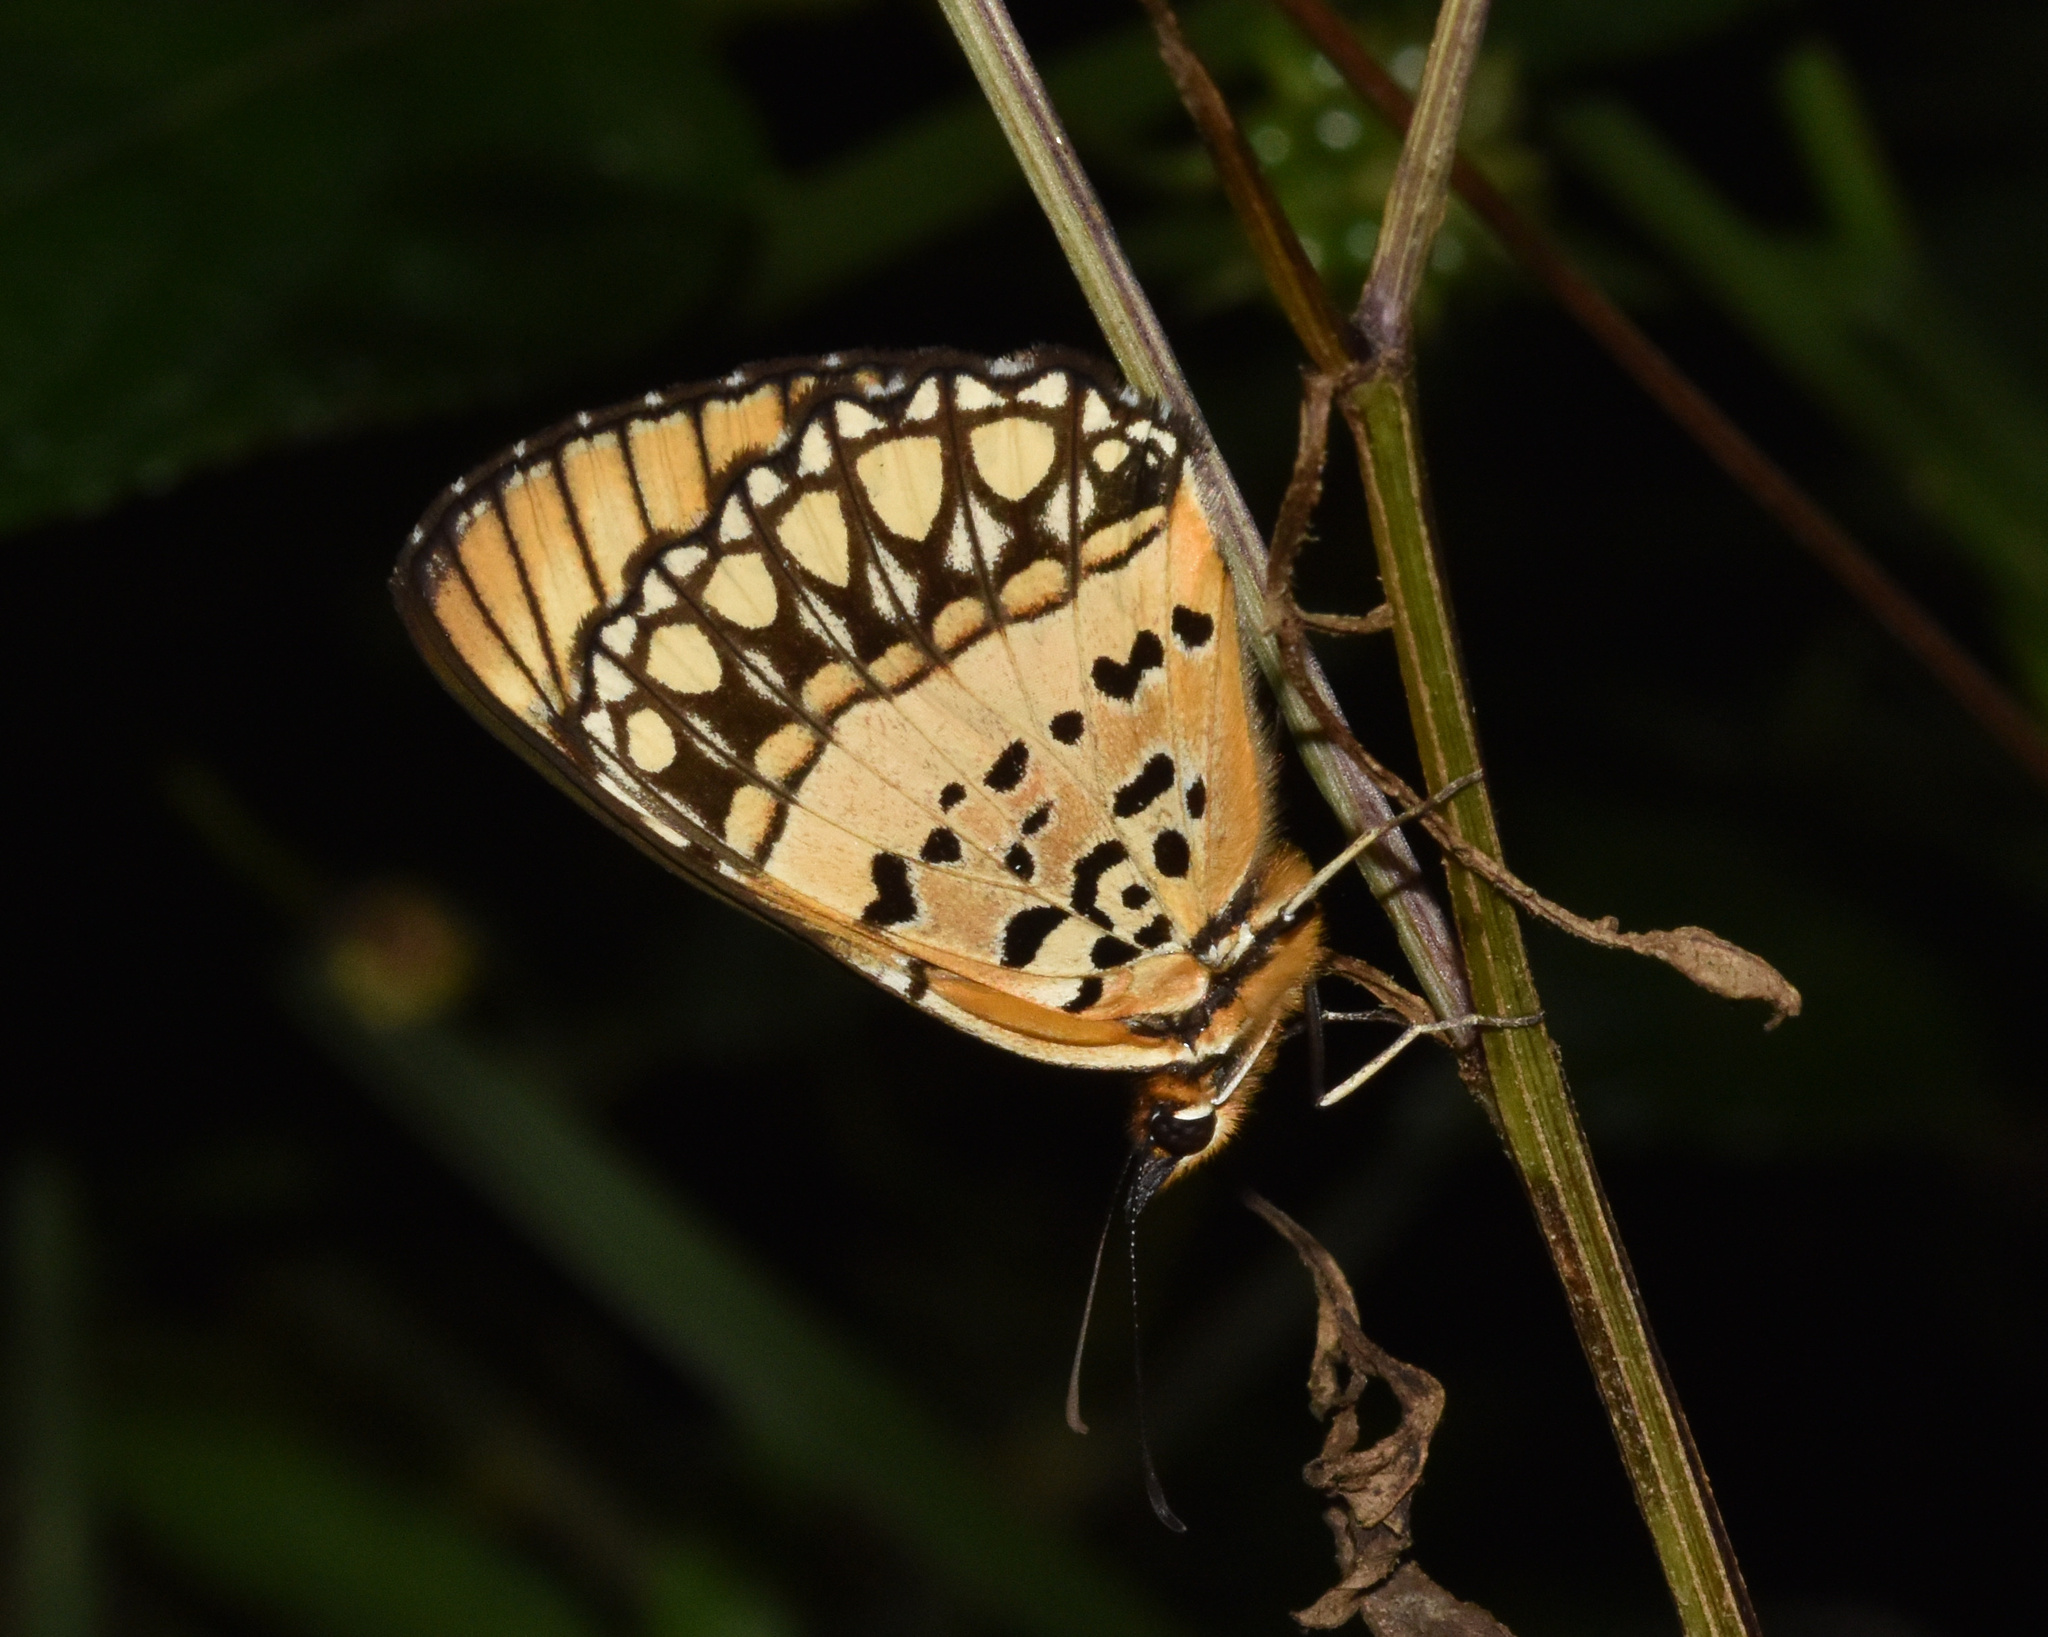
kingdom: Animalia
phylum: Arthropoda
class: Insecta
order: Lepidoptera
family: Nymphalidae
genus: Byblia
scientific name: Byblia acheloia
